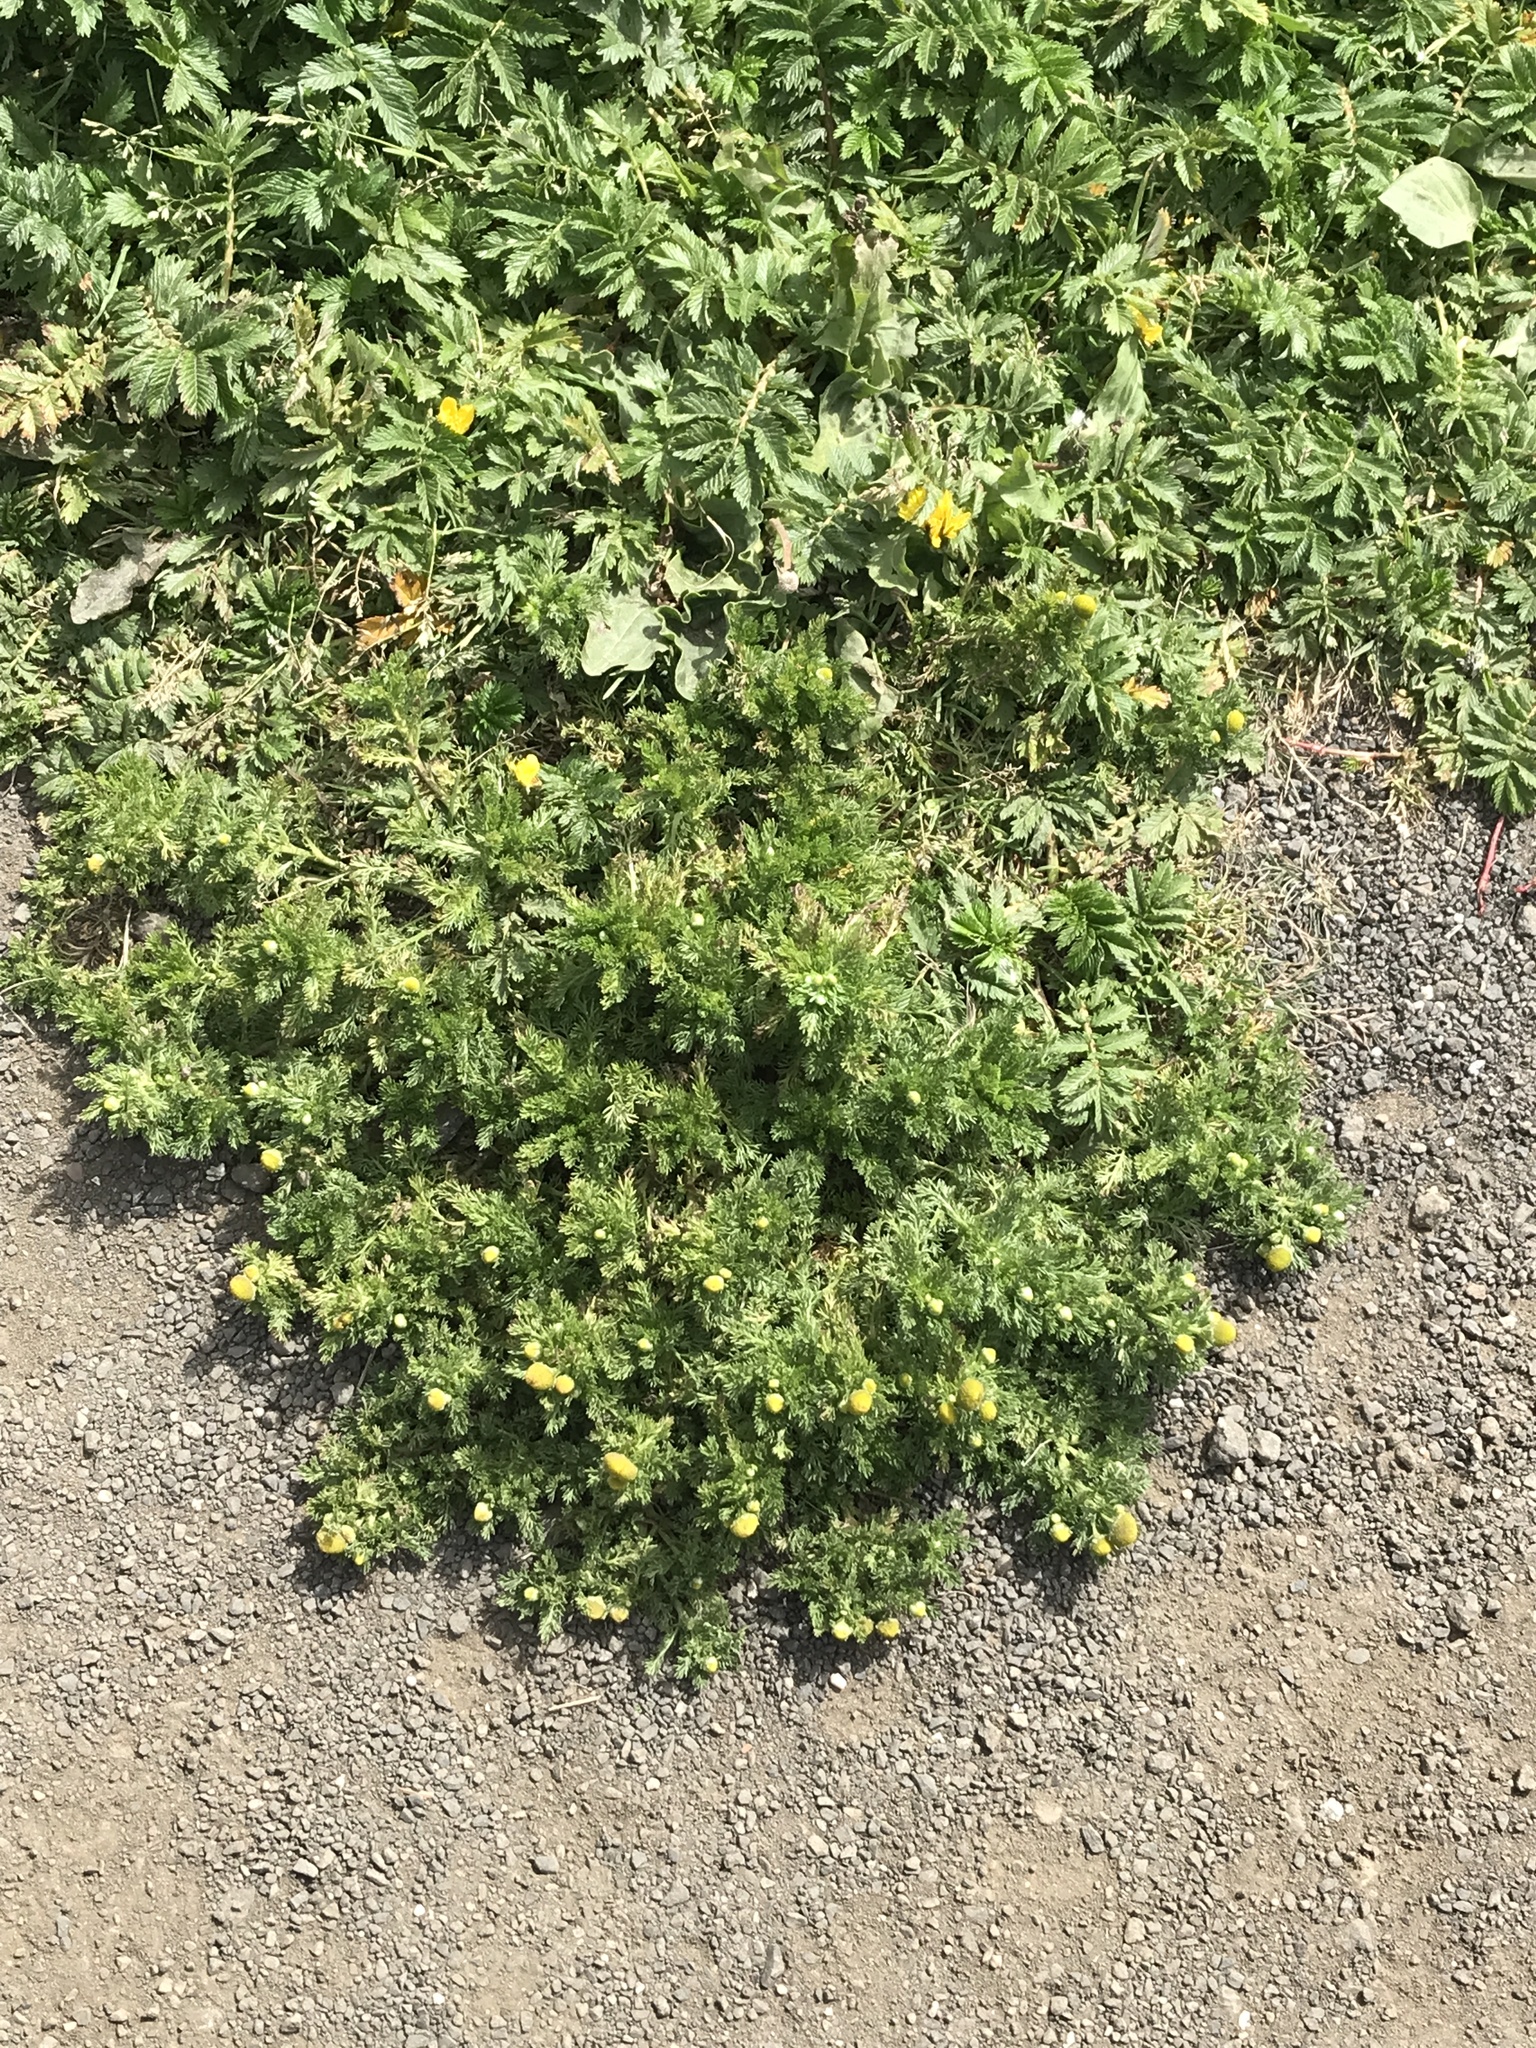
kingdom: Plantae
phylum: Tracheophyta
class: Magnoliopsida
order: Asterales
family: Asteraceae
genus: Matricaria
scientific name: Matricaria discoidea
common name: Disc mayweed
